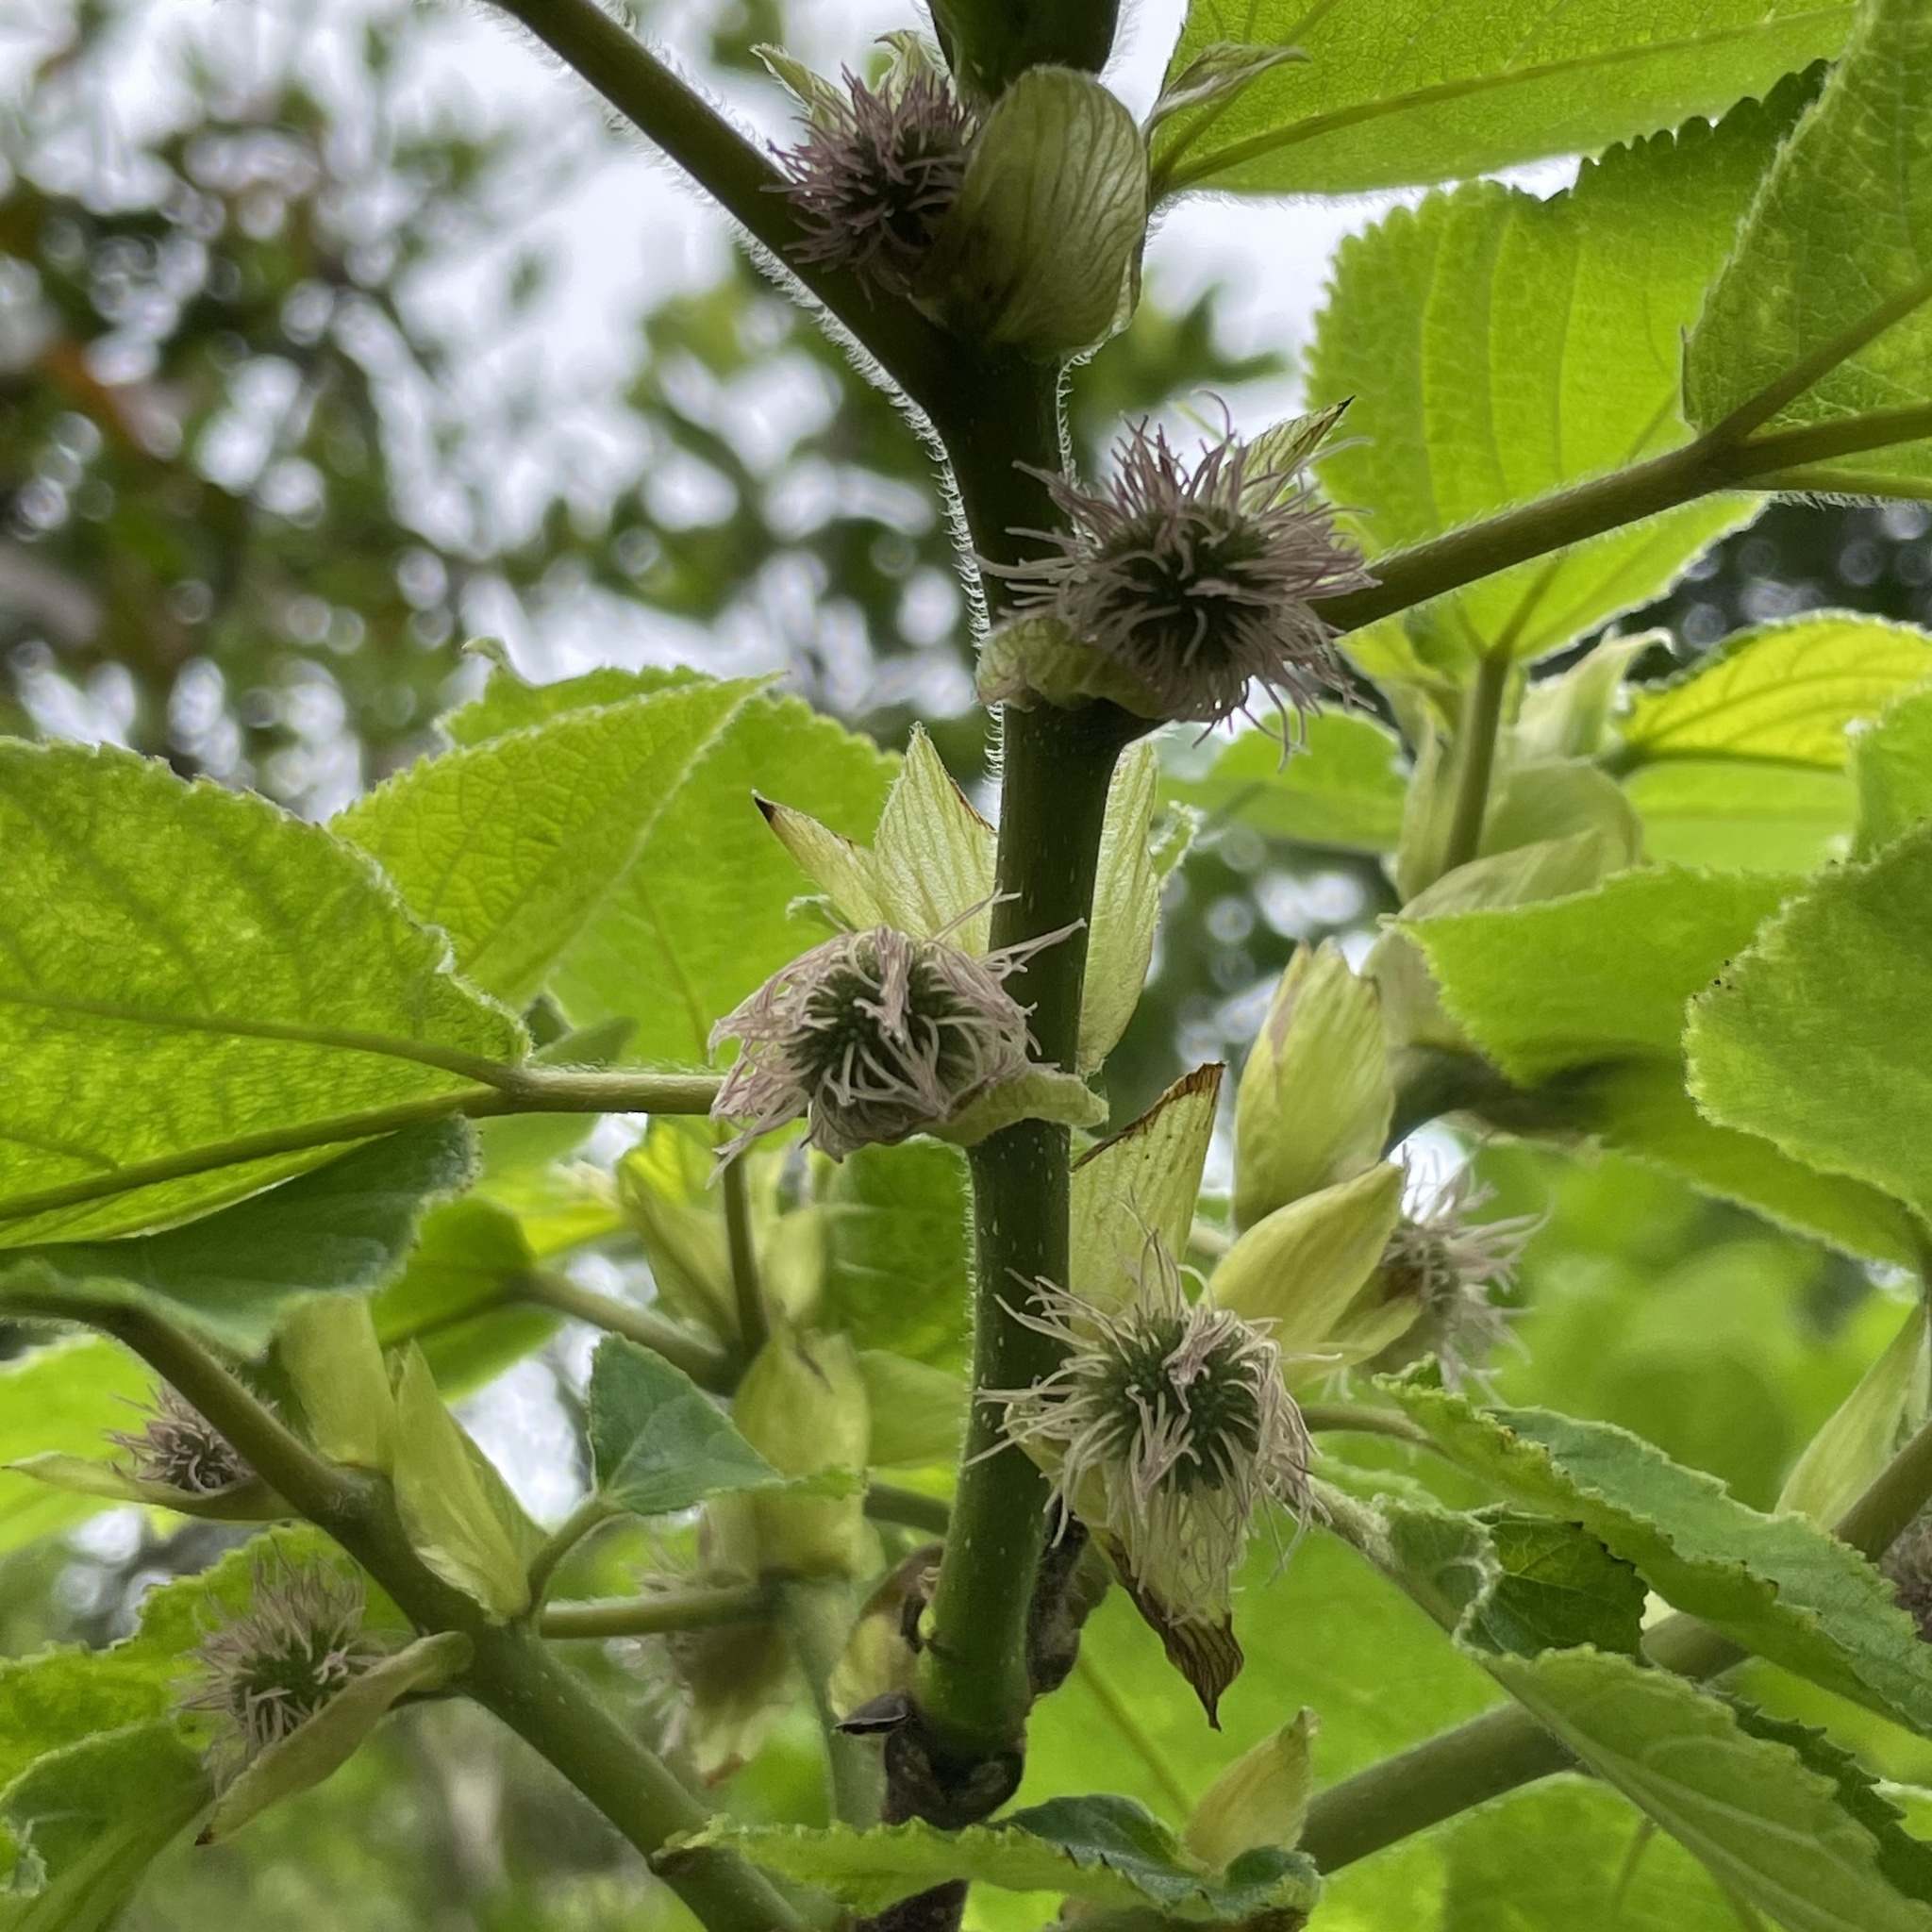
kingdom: Plantae
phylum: Tracheophyta
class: Magnoliopsida
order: Rosales
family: Moraceae
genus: Broussonetia
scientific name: Broussonetia papyrifera
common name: Paper mulberry
